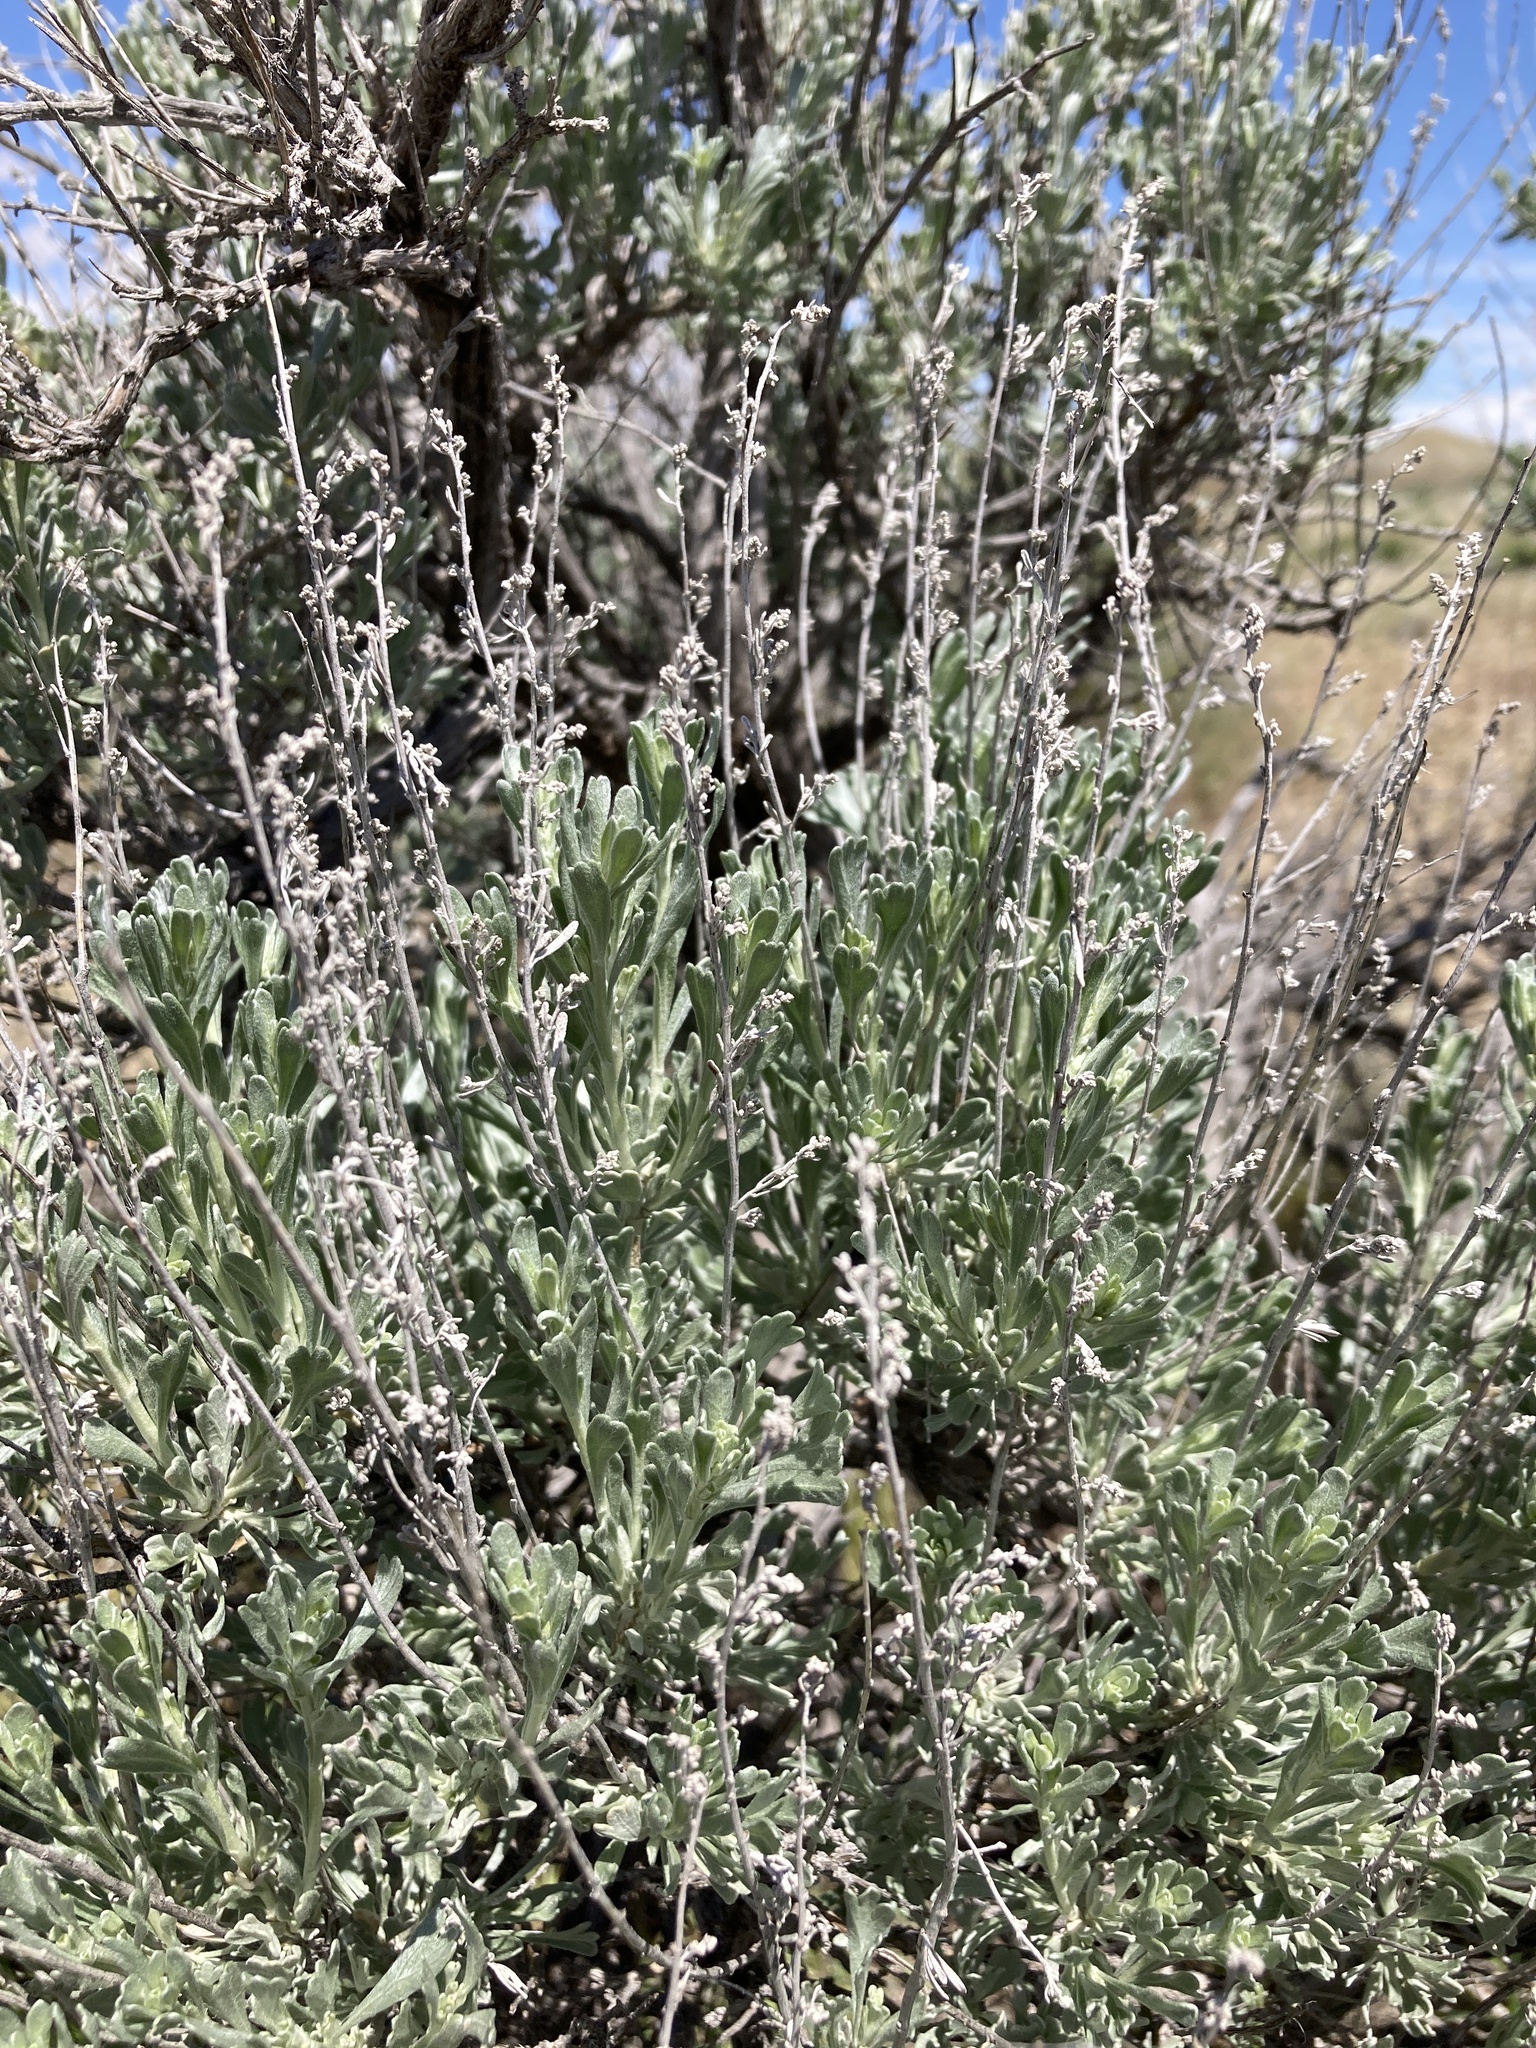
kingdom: Plantae
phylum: Tracheophyta
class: Magnoliopsida
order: Asterales
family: Asteraceae
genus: Artemisia
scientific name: Artemisia tridentata
